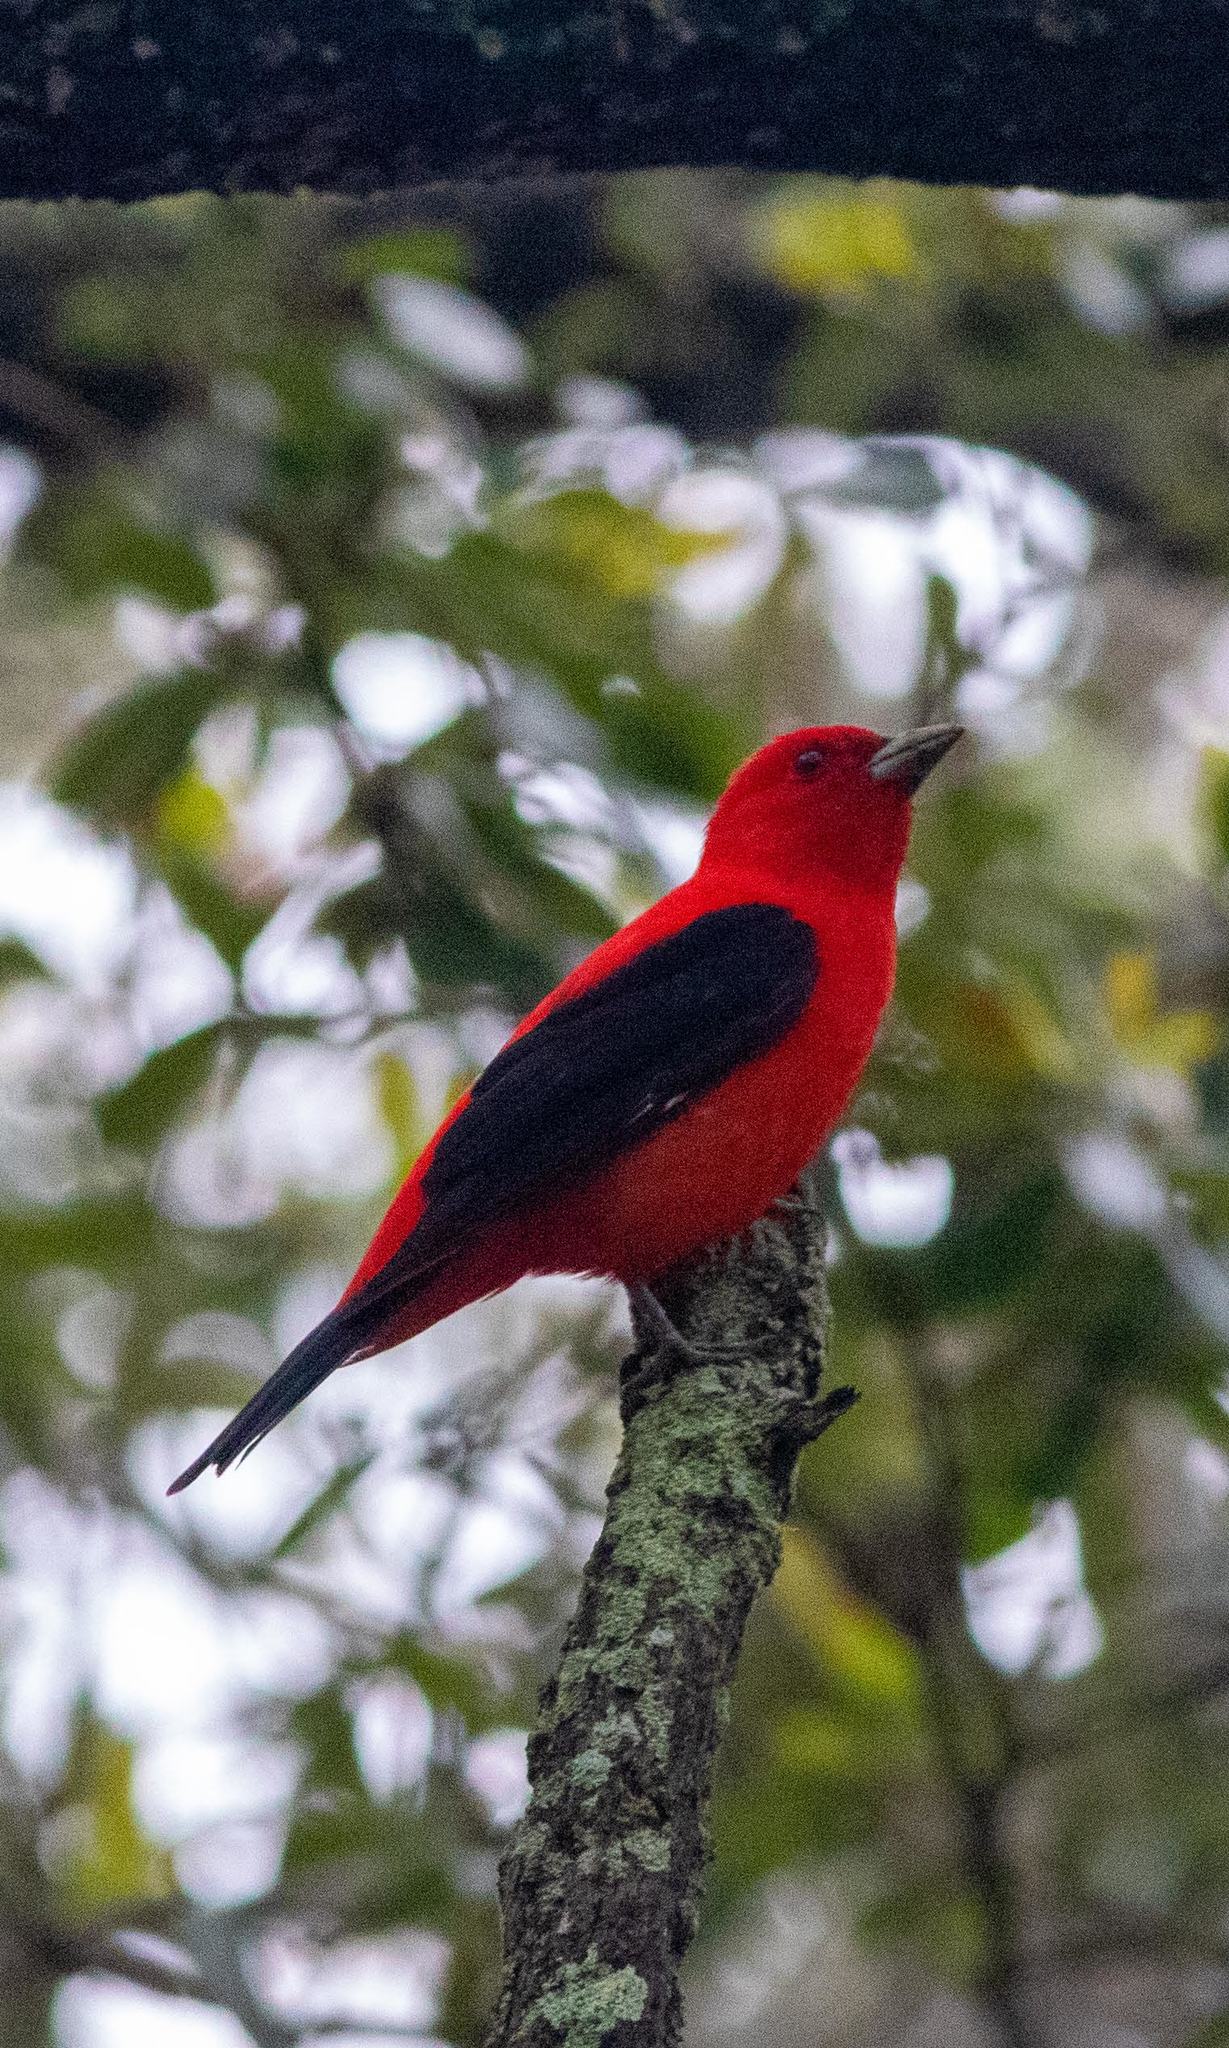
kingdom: Animalia
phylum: Chordata
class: Aves
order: Passeriformes
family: Cardinalidae
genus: Piranga
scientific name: Piranga olivacea
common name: Scarlet tanager
